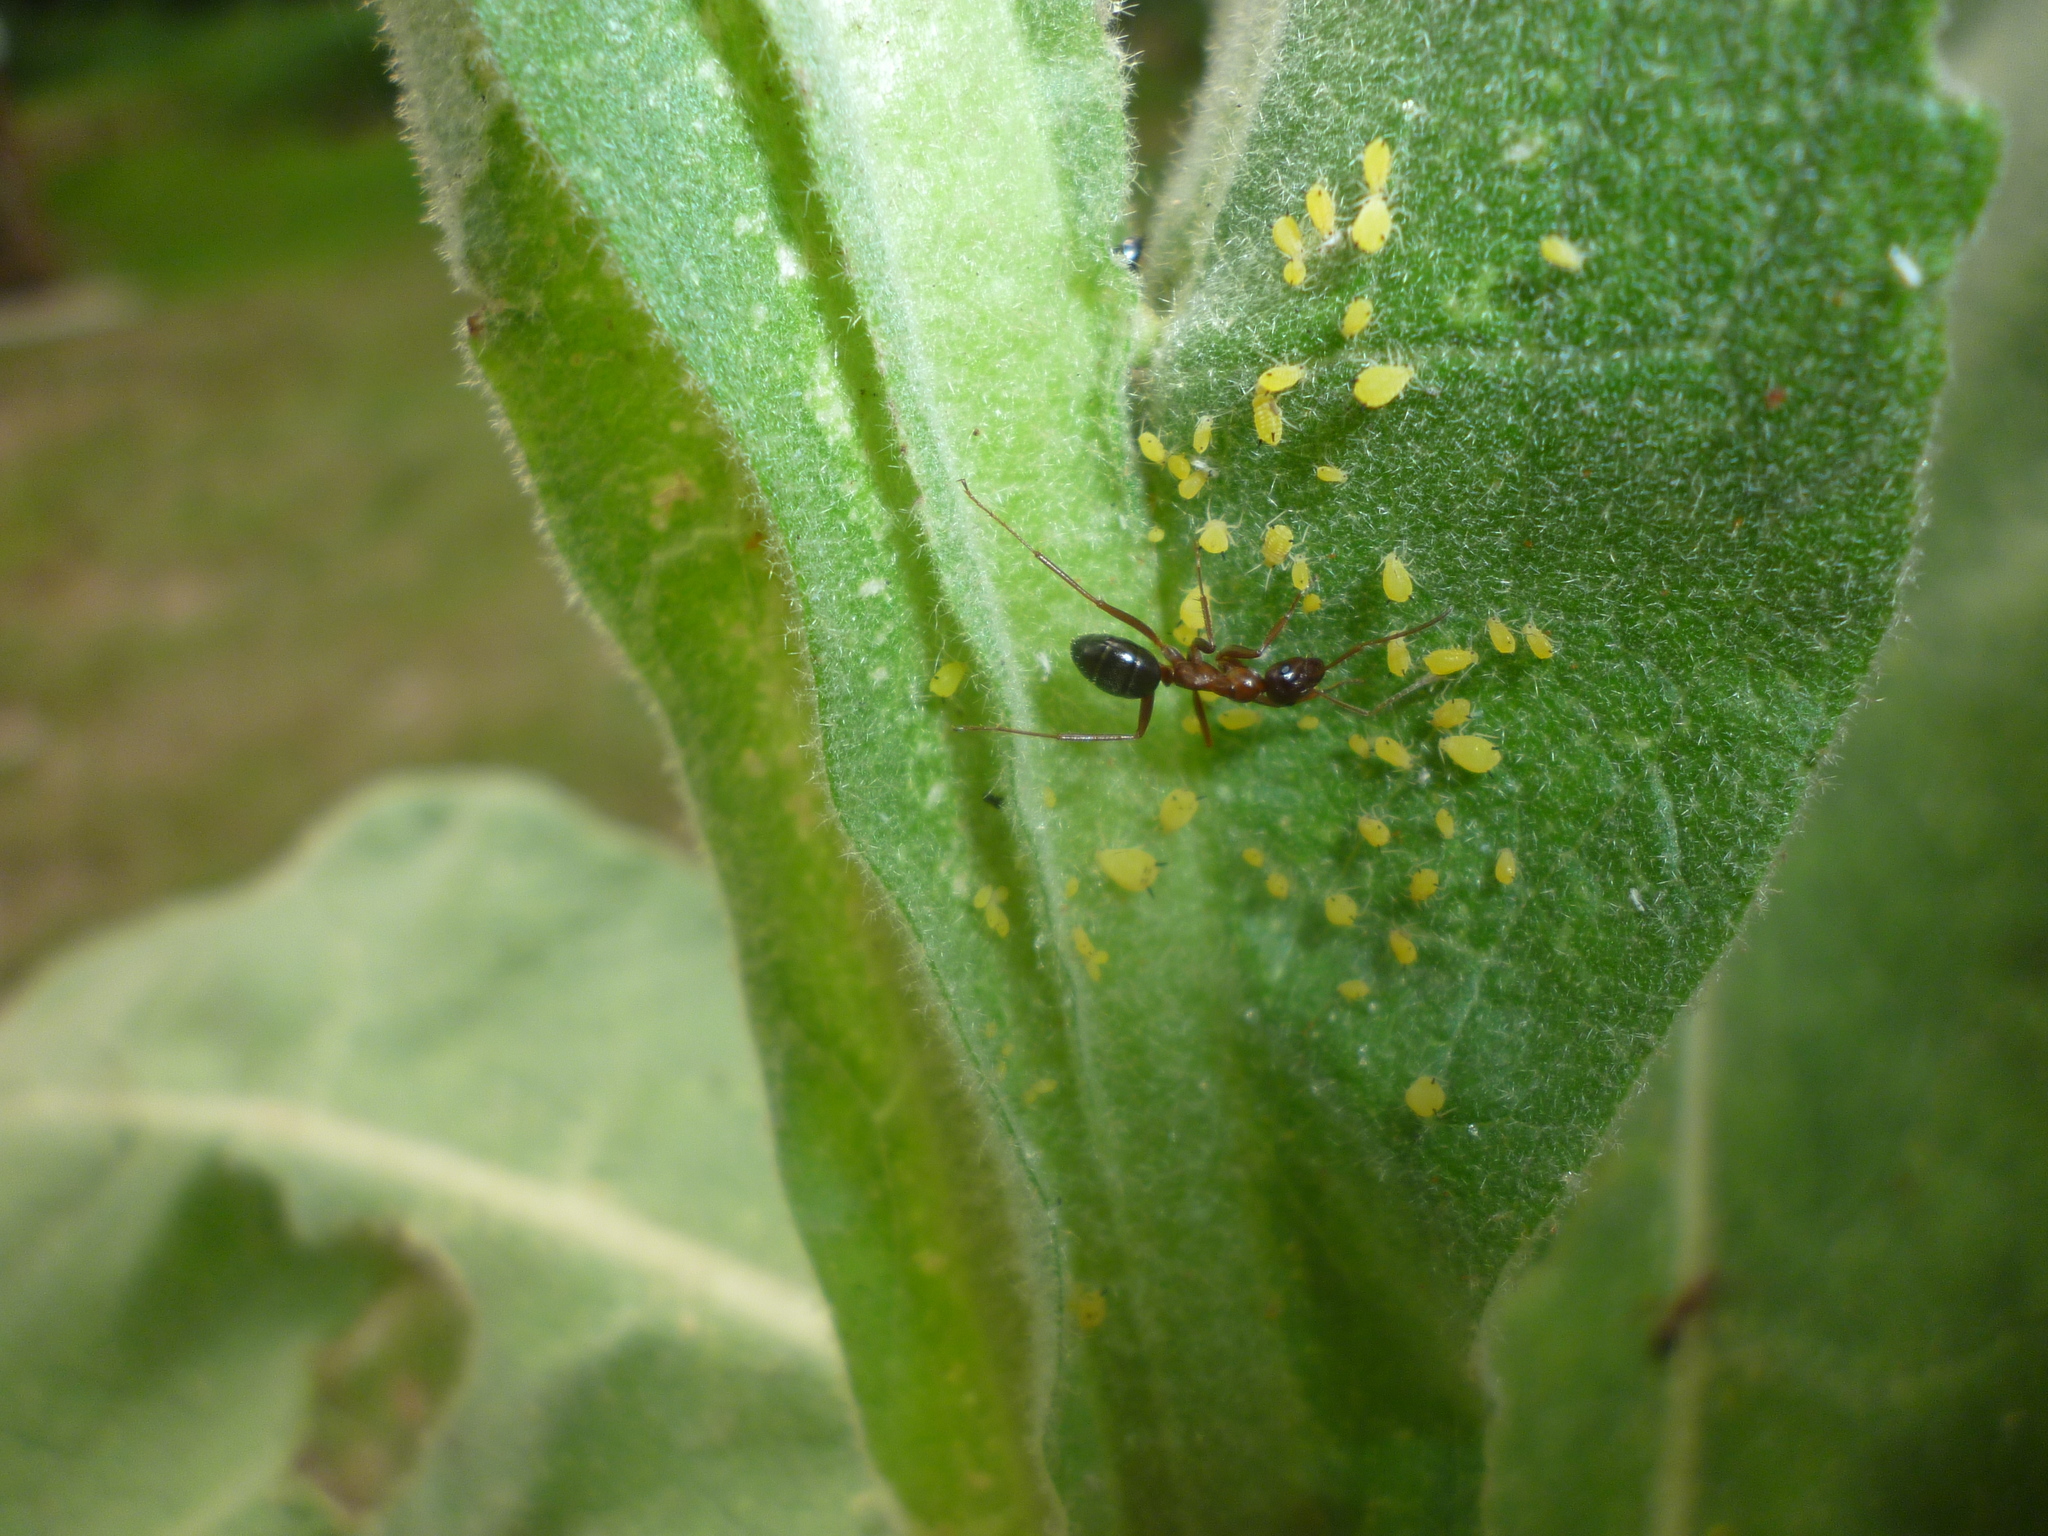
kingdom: Animalia
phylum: Arthropoda
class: Insecta
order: Hymenoptera
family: Formicidae
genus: Formica
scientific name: Formica
